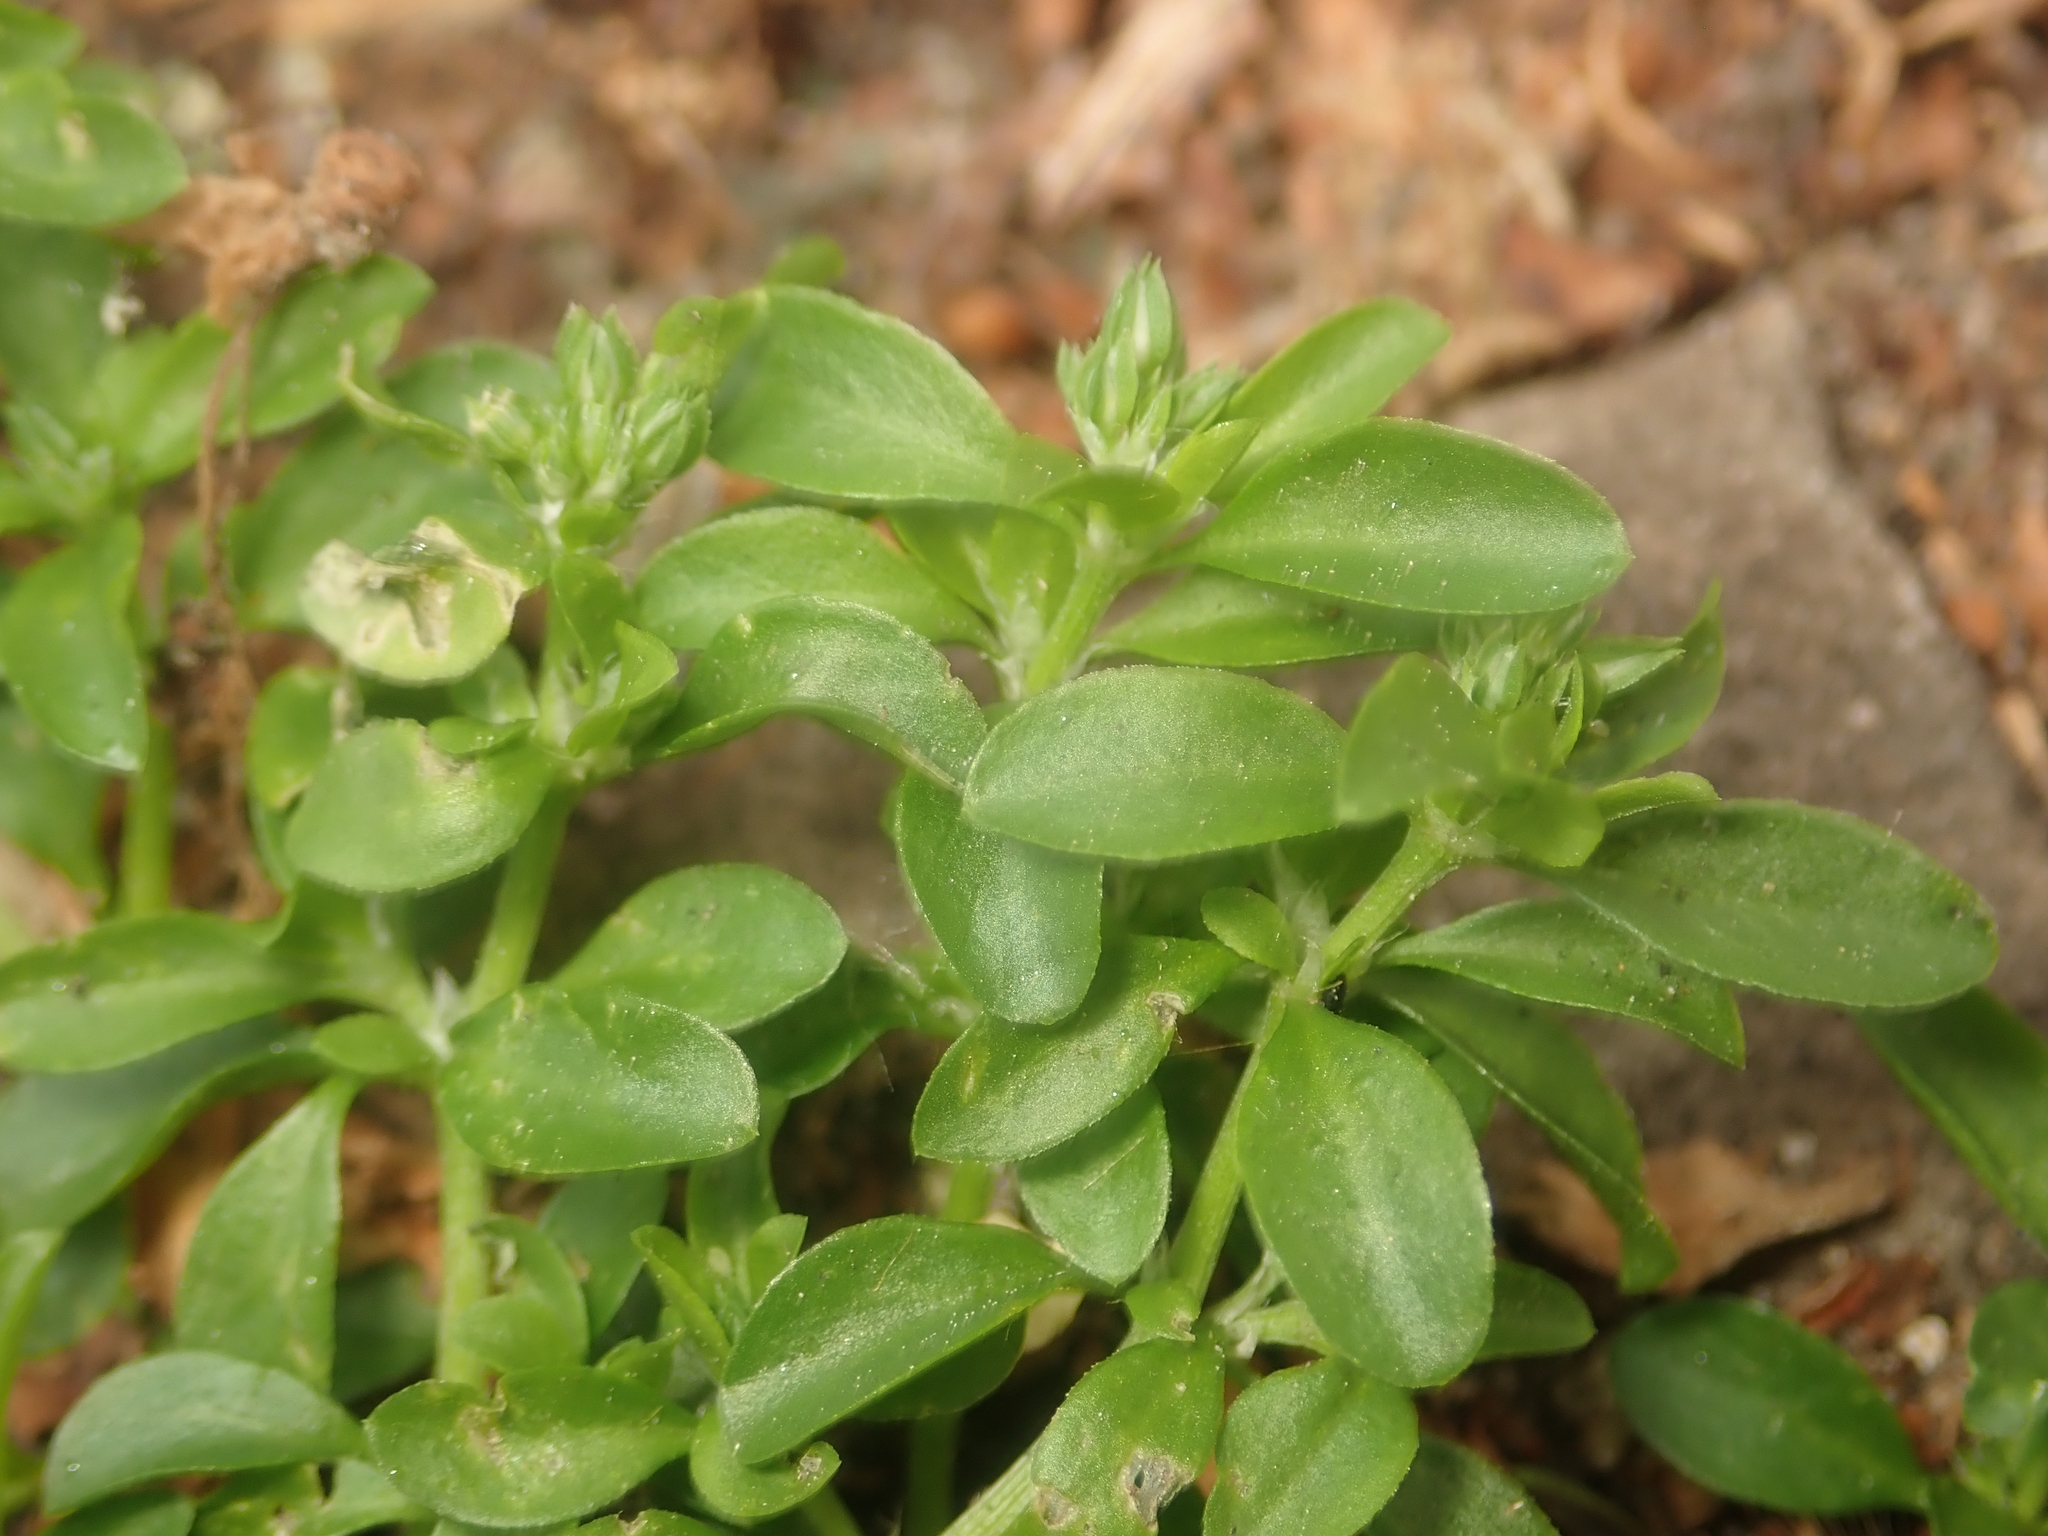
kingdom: Plantae
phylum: Tracheophyta
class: Magnoliopsida
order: Caryophyllales
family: Caryophyllaceae
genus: Polycarpon
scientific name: Polycarpon tetraphyllum
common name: Four-leaved all-seed
